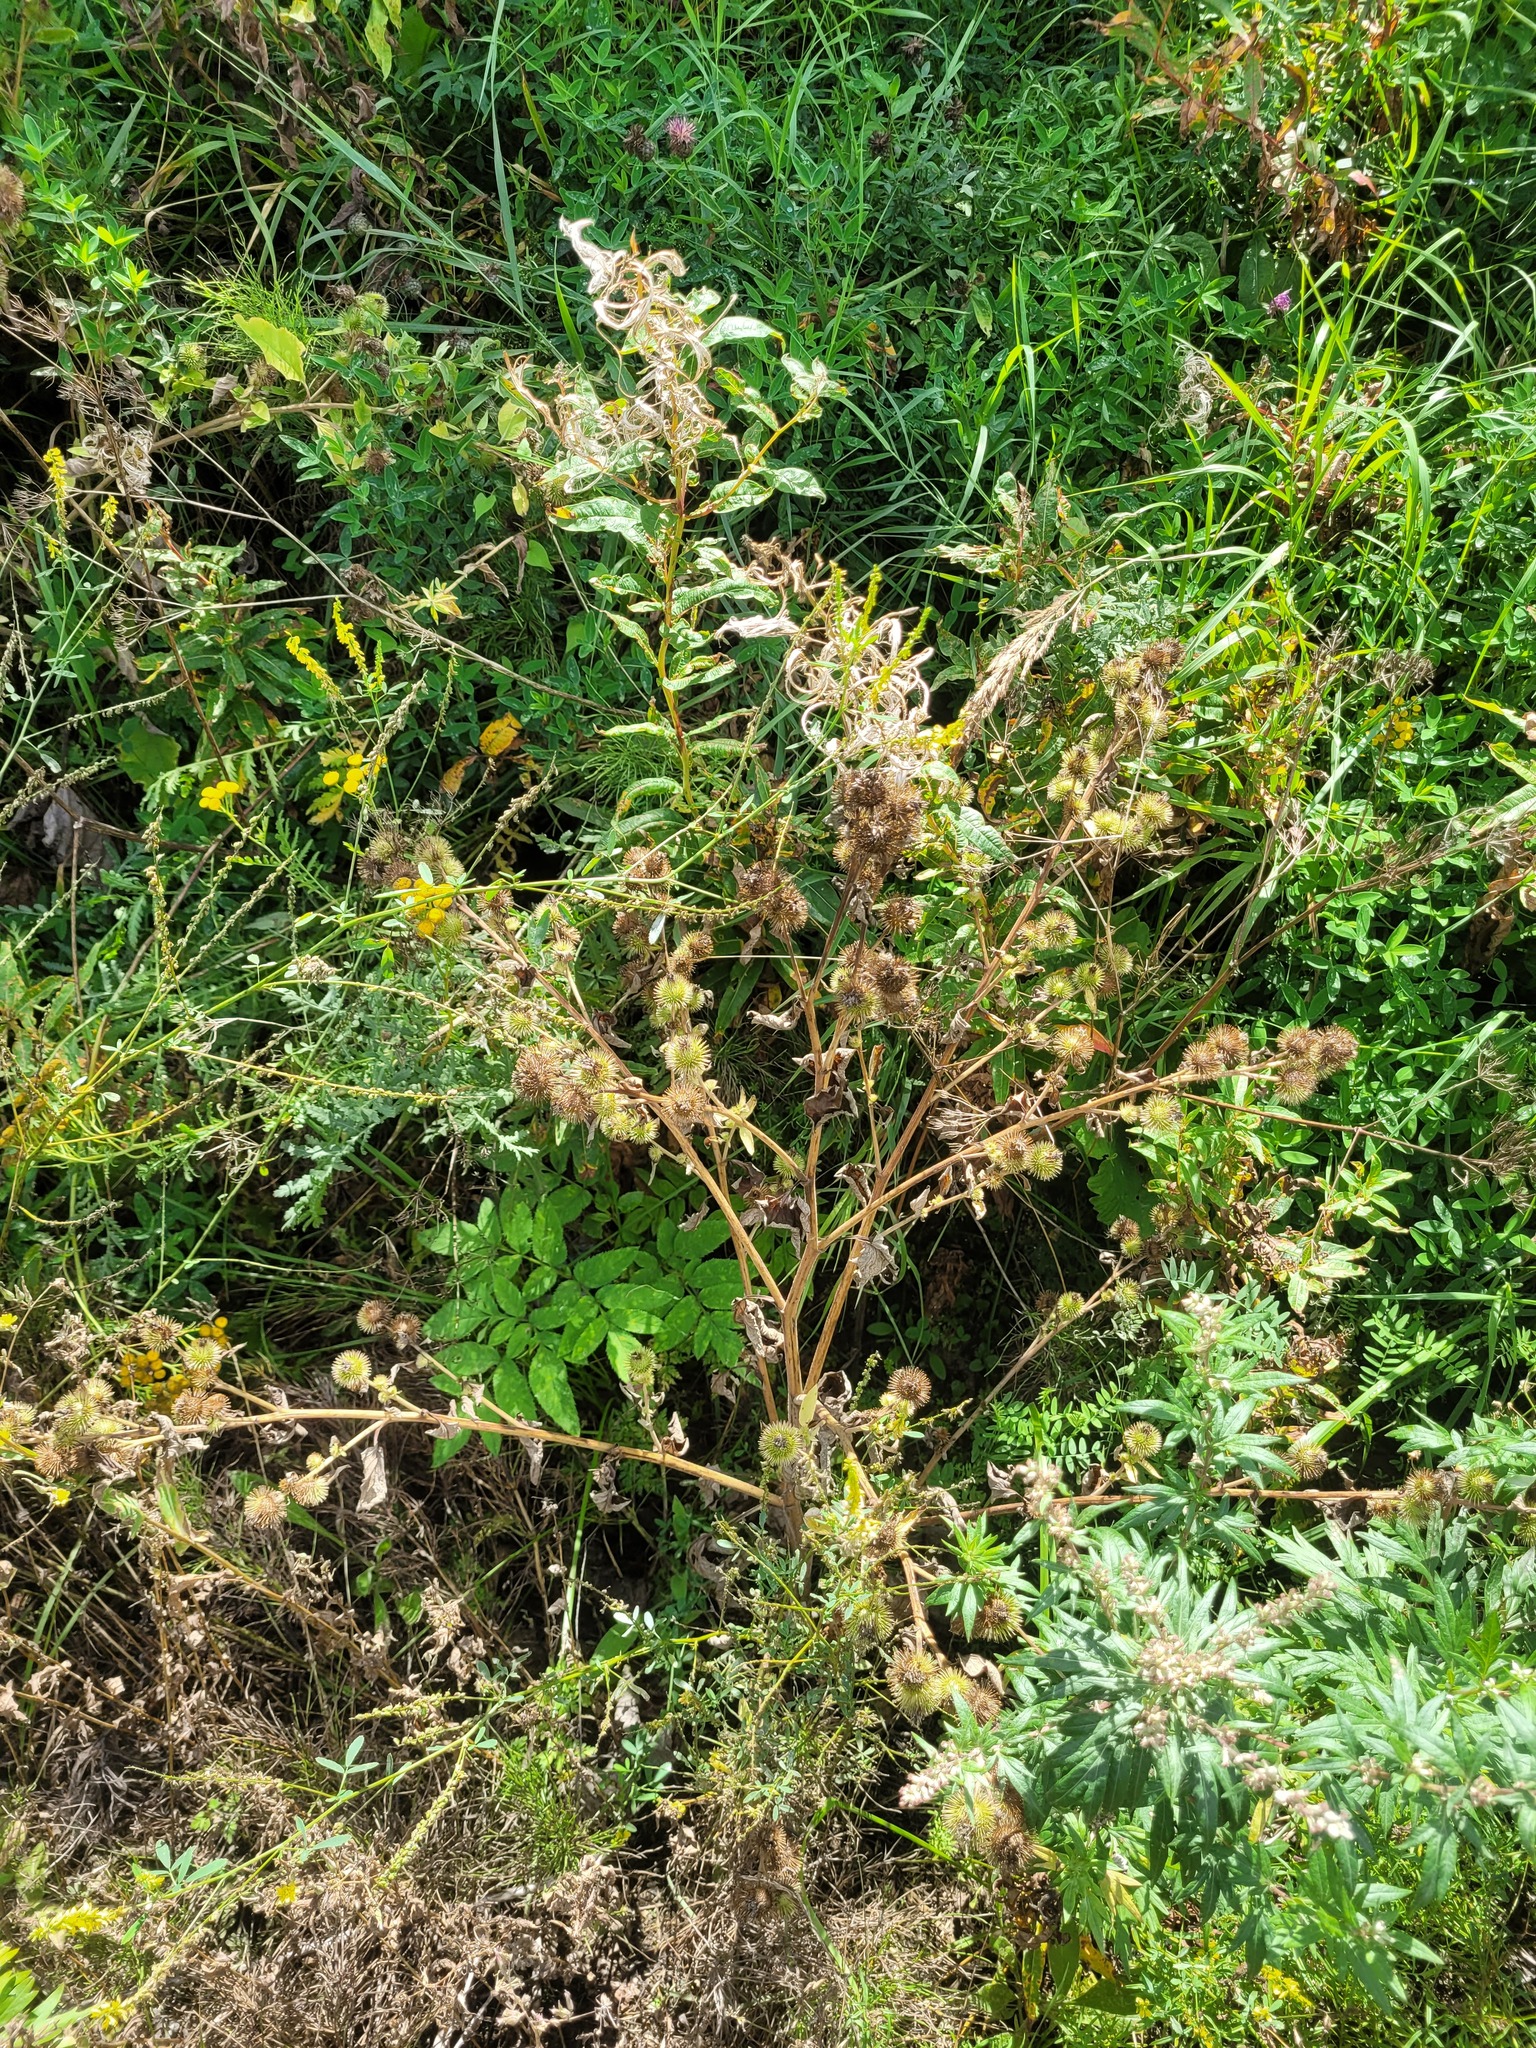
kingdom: Plantae
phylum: Tracheophyta
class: Magnoliopsida
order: Asterales
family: Asteraceae
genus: Arctium
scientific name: Arctium minus
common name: Lesser burdock
